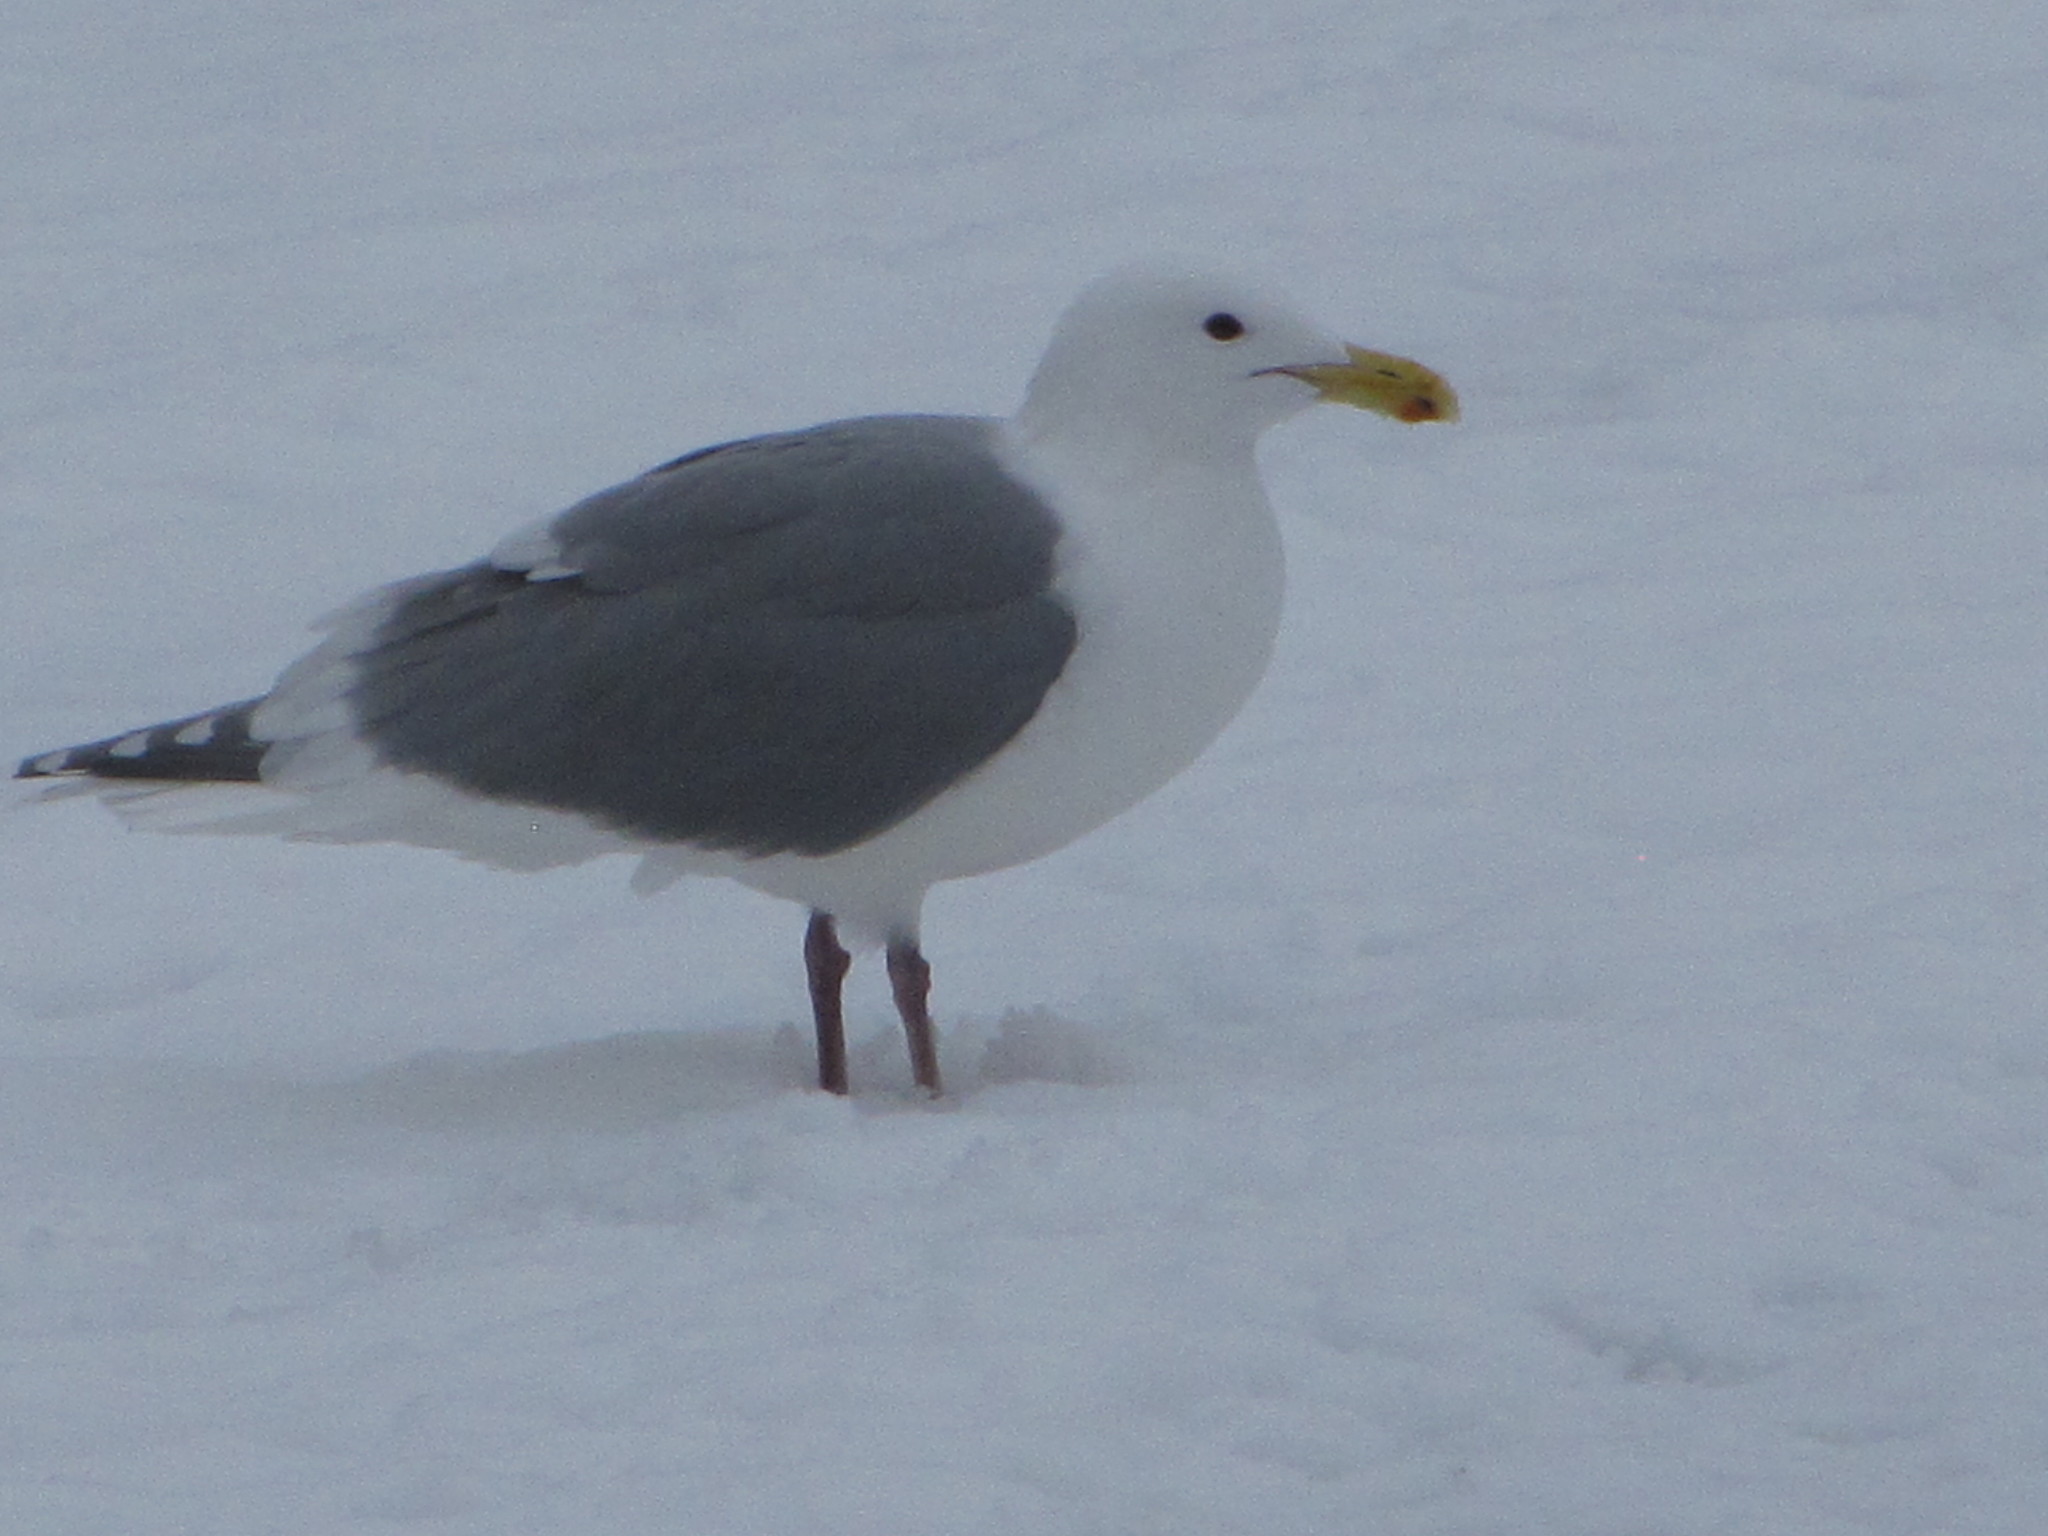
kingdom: Animalia
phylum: Chordata
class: Aves
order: Charadriiformes
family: Laridae
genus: Larus
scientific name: Larus
